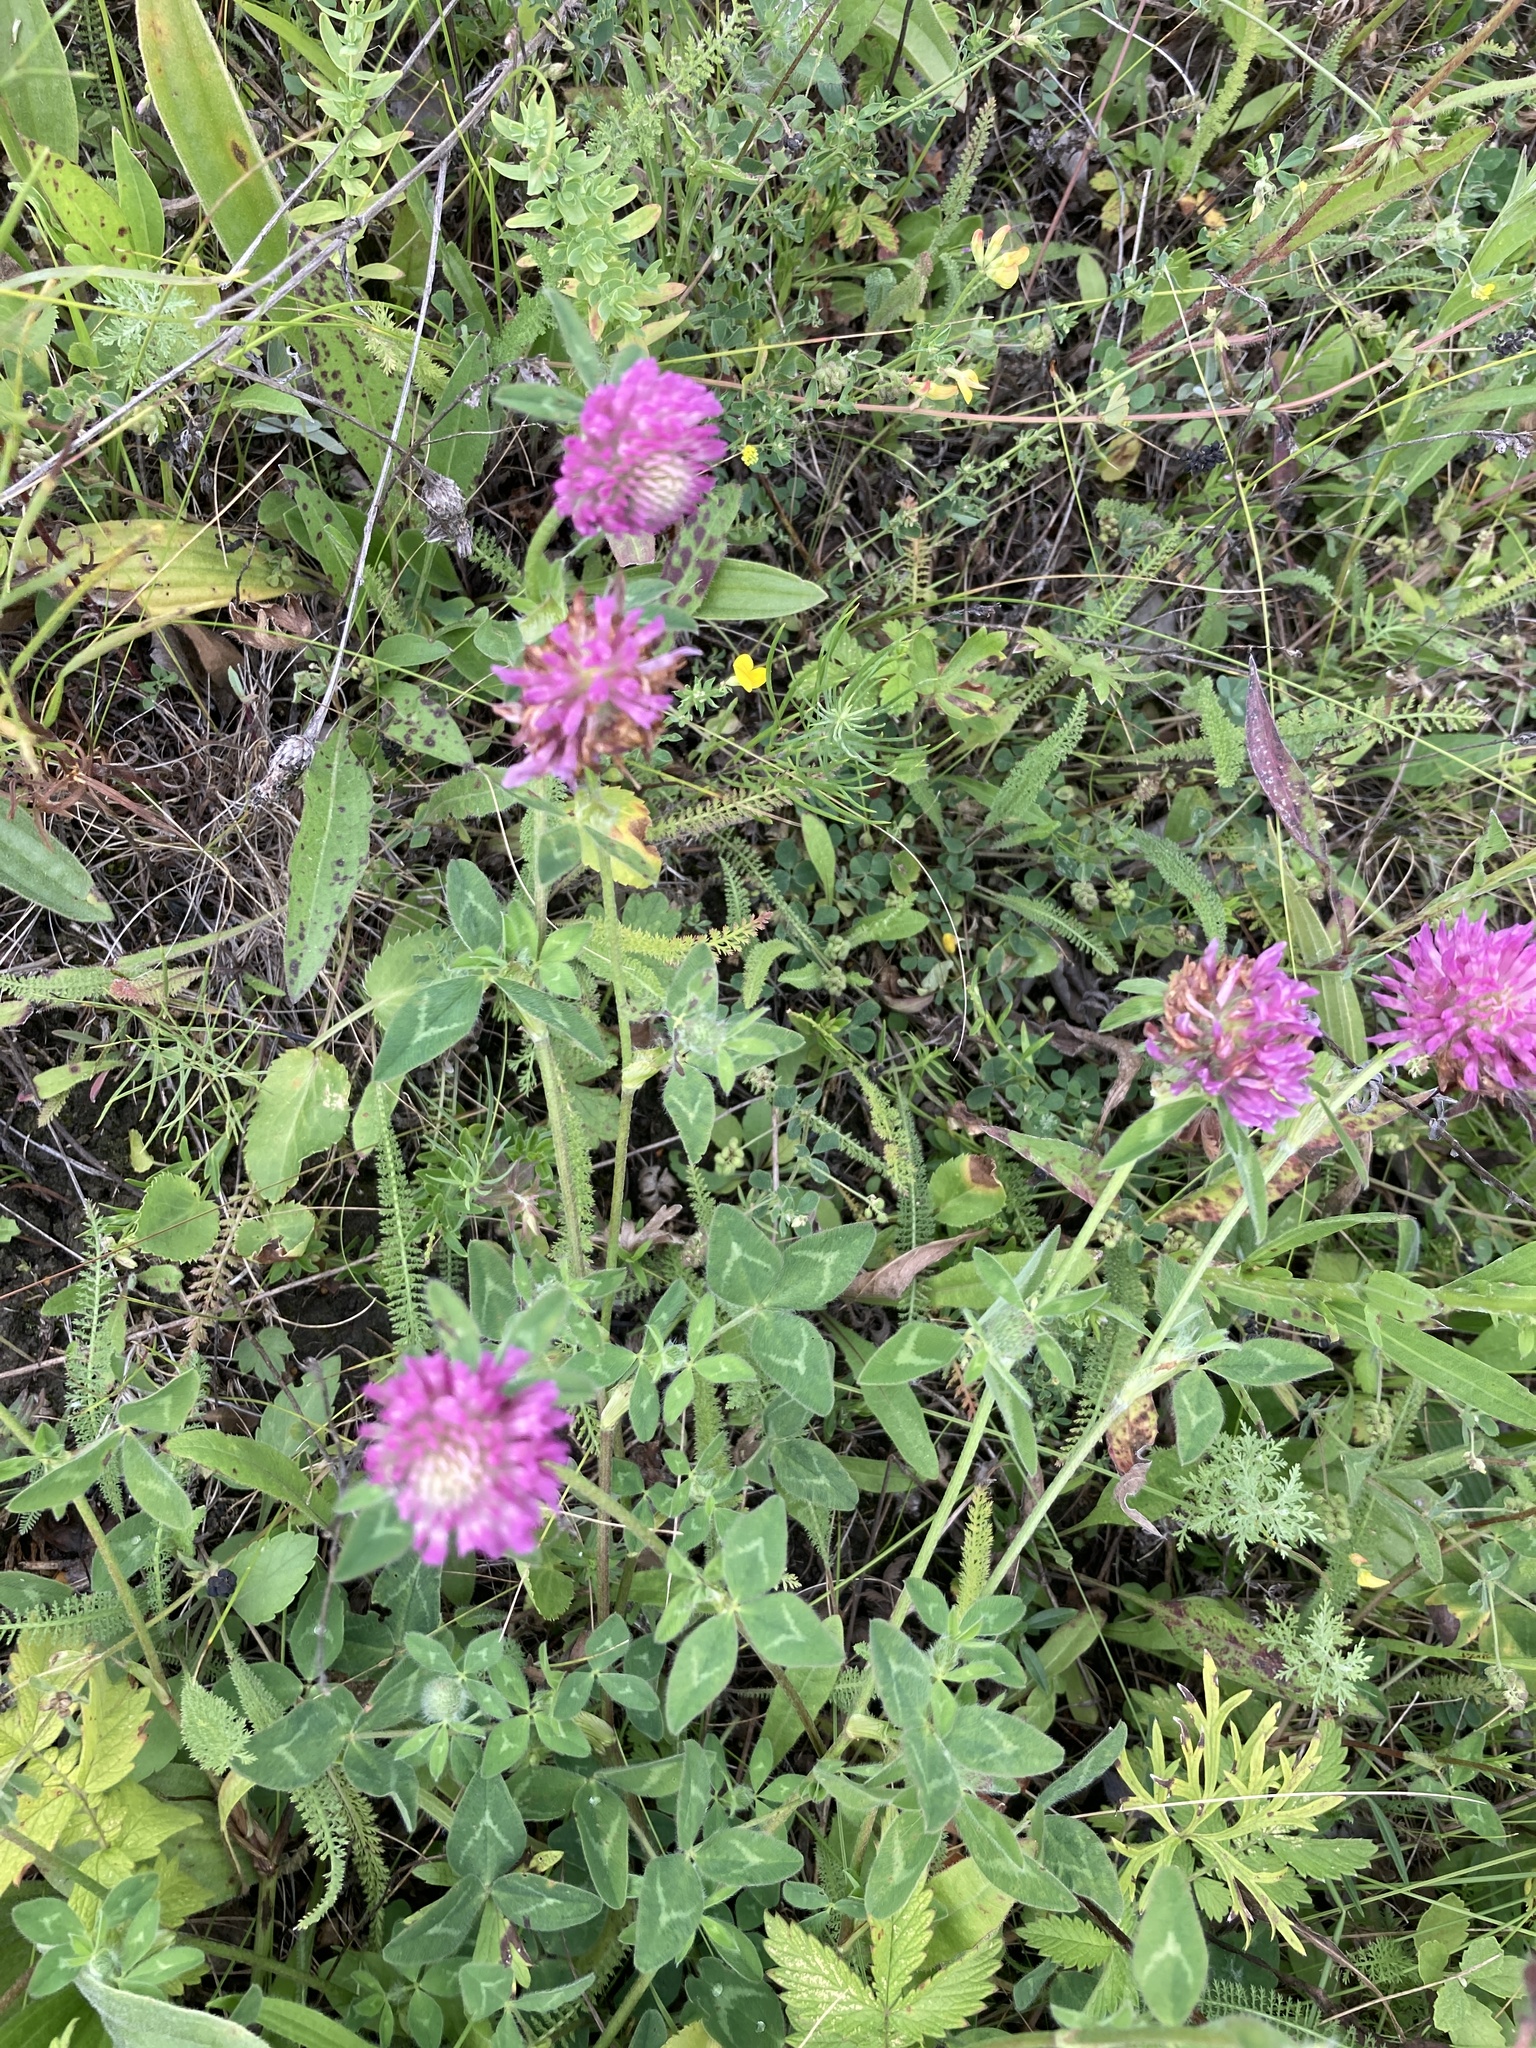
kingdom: Plantae
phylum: Tracheophyta
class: Magnoliopsida
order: Fabales
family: Fabaceae
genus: Trifolium
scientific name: Trifolium pratense
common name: Red clover
